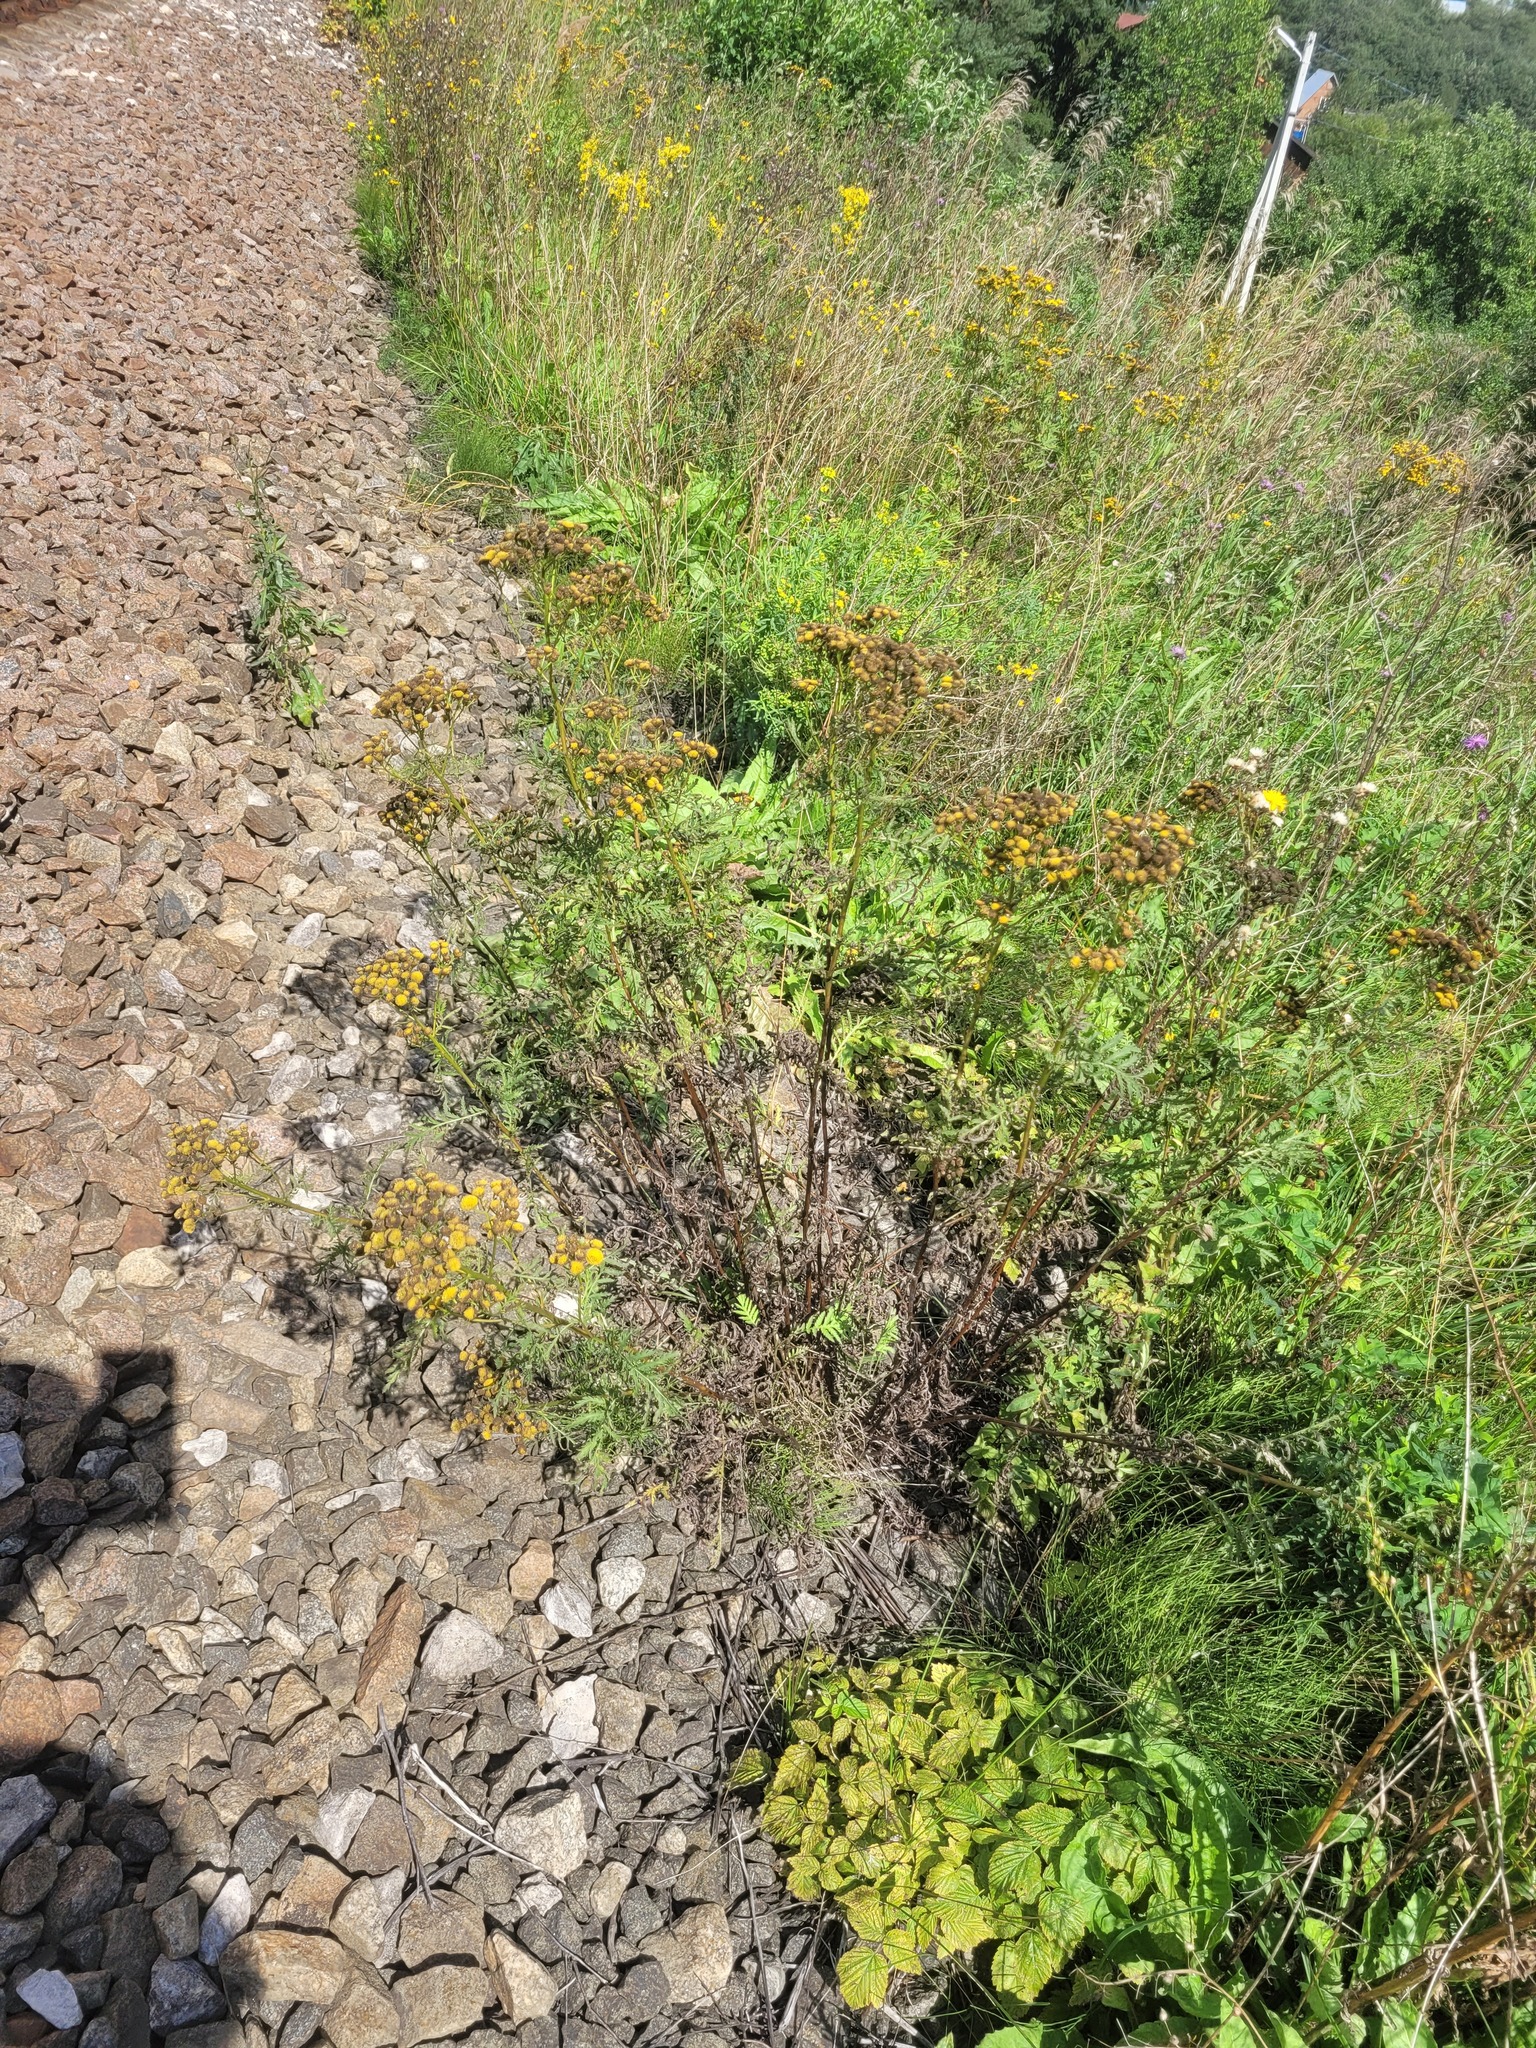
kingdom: Plantae
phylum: Tracheophyta
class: Magnoliopsida
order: Asterales
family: Asteraceae
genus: Tanacetum
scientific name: Tanacetum vulgare
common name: Common tansy
